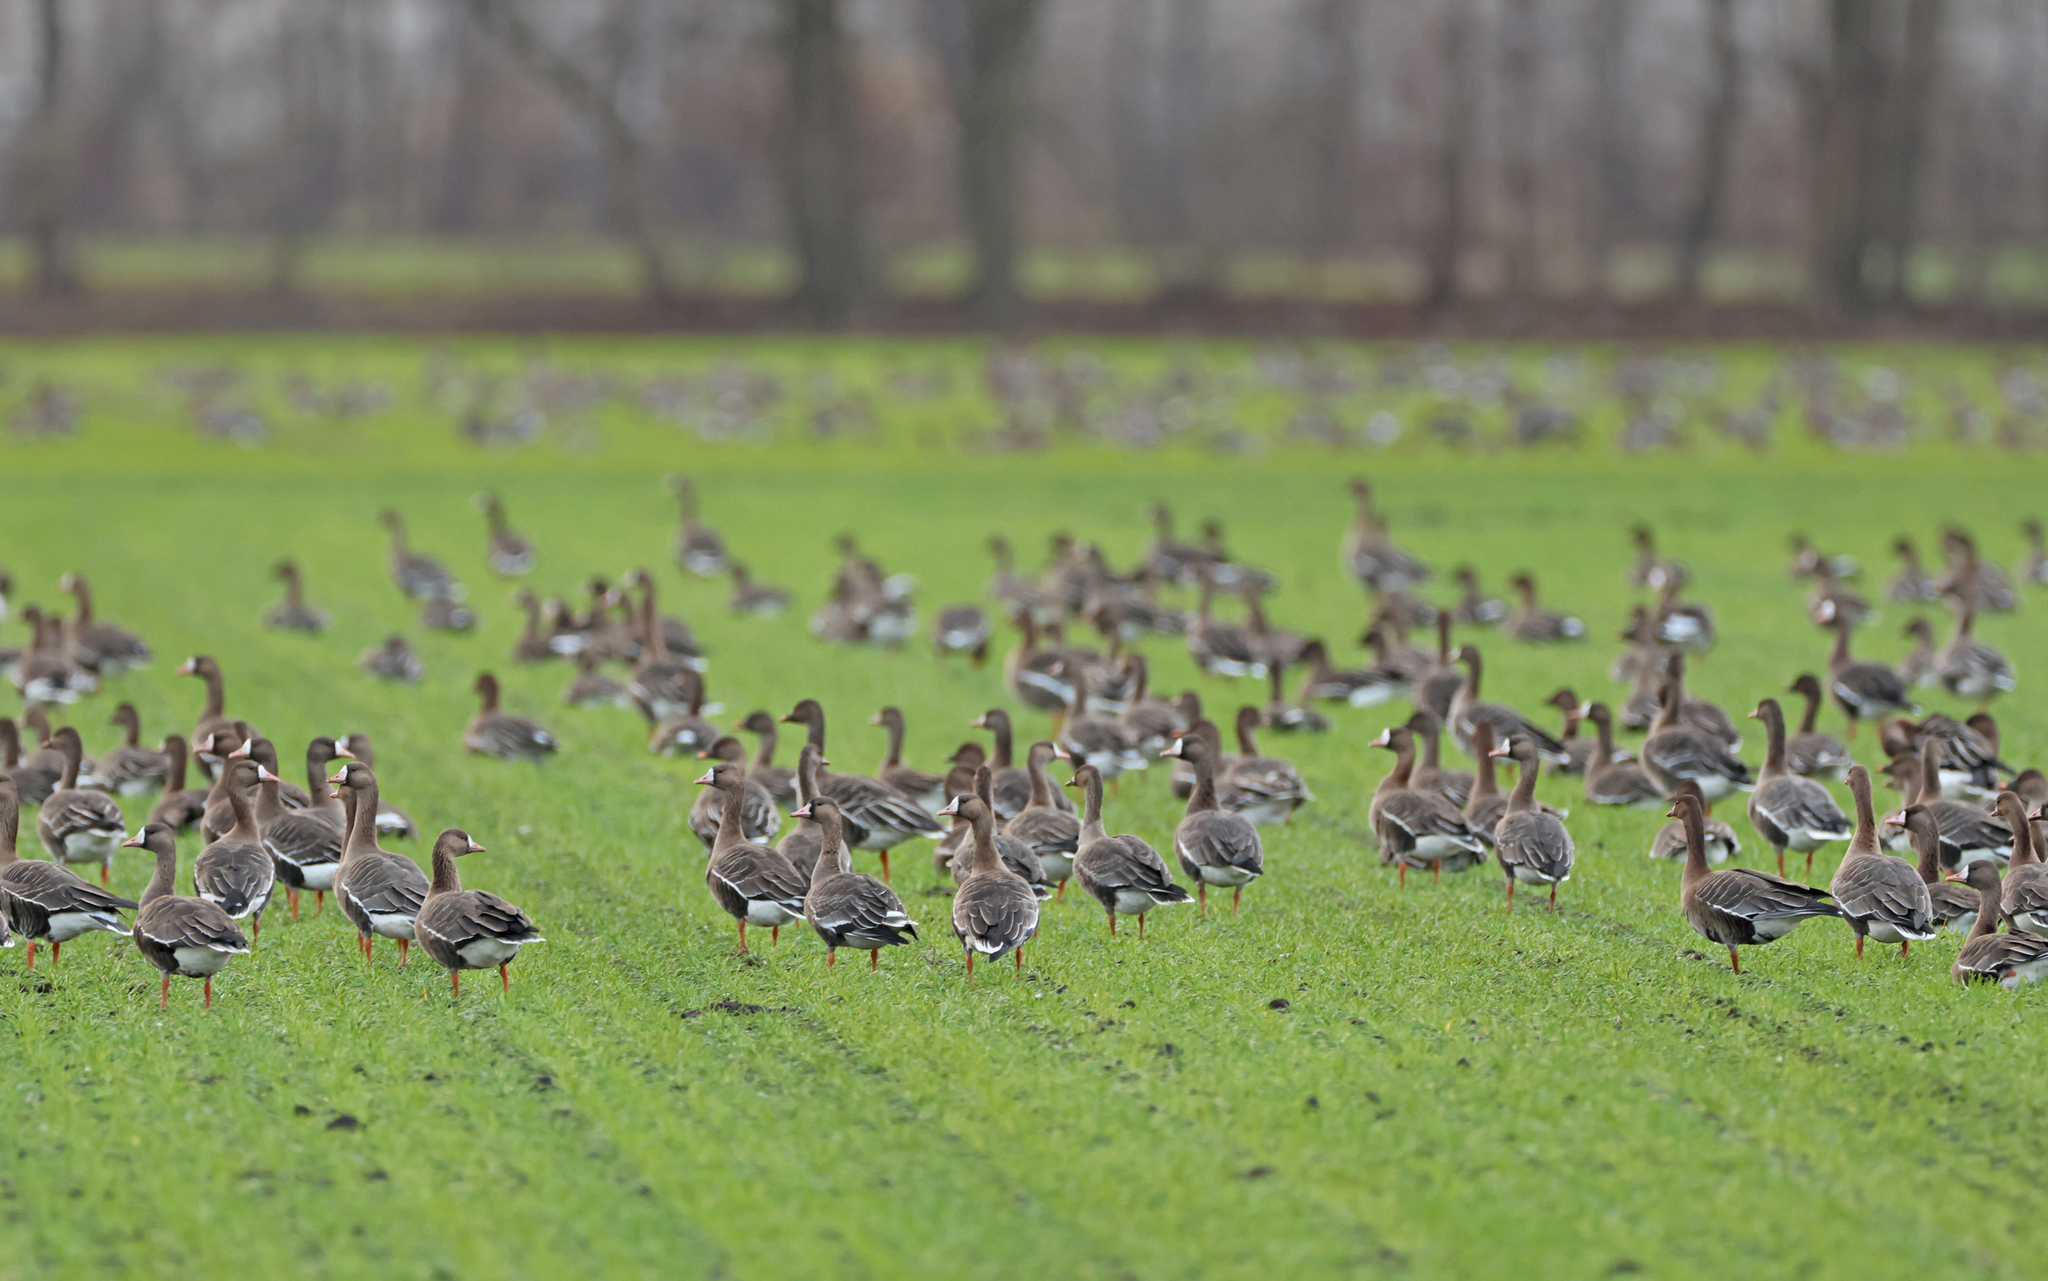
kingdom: Animalia
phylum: Chordata
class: Aves
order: Anseriformes
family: Anatidae
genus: Anser
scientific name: Anser albifrons
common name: Greater white-fronted goose
